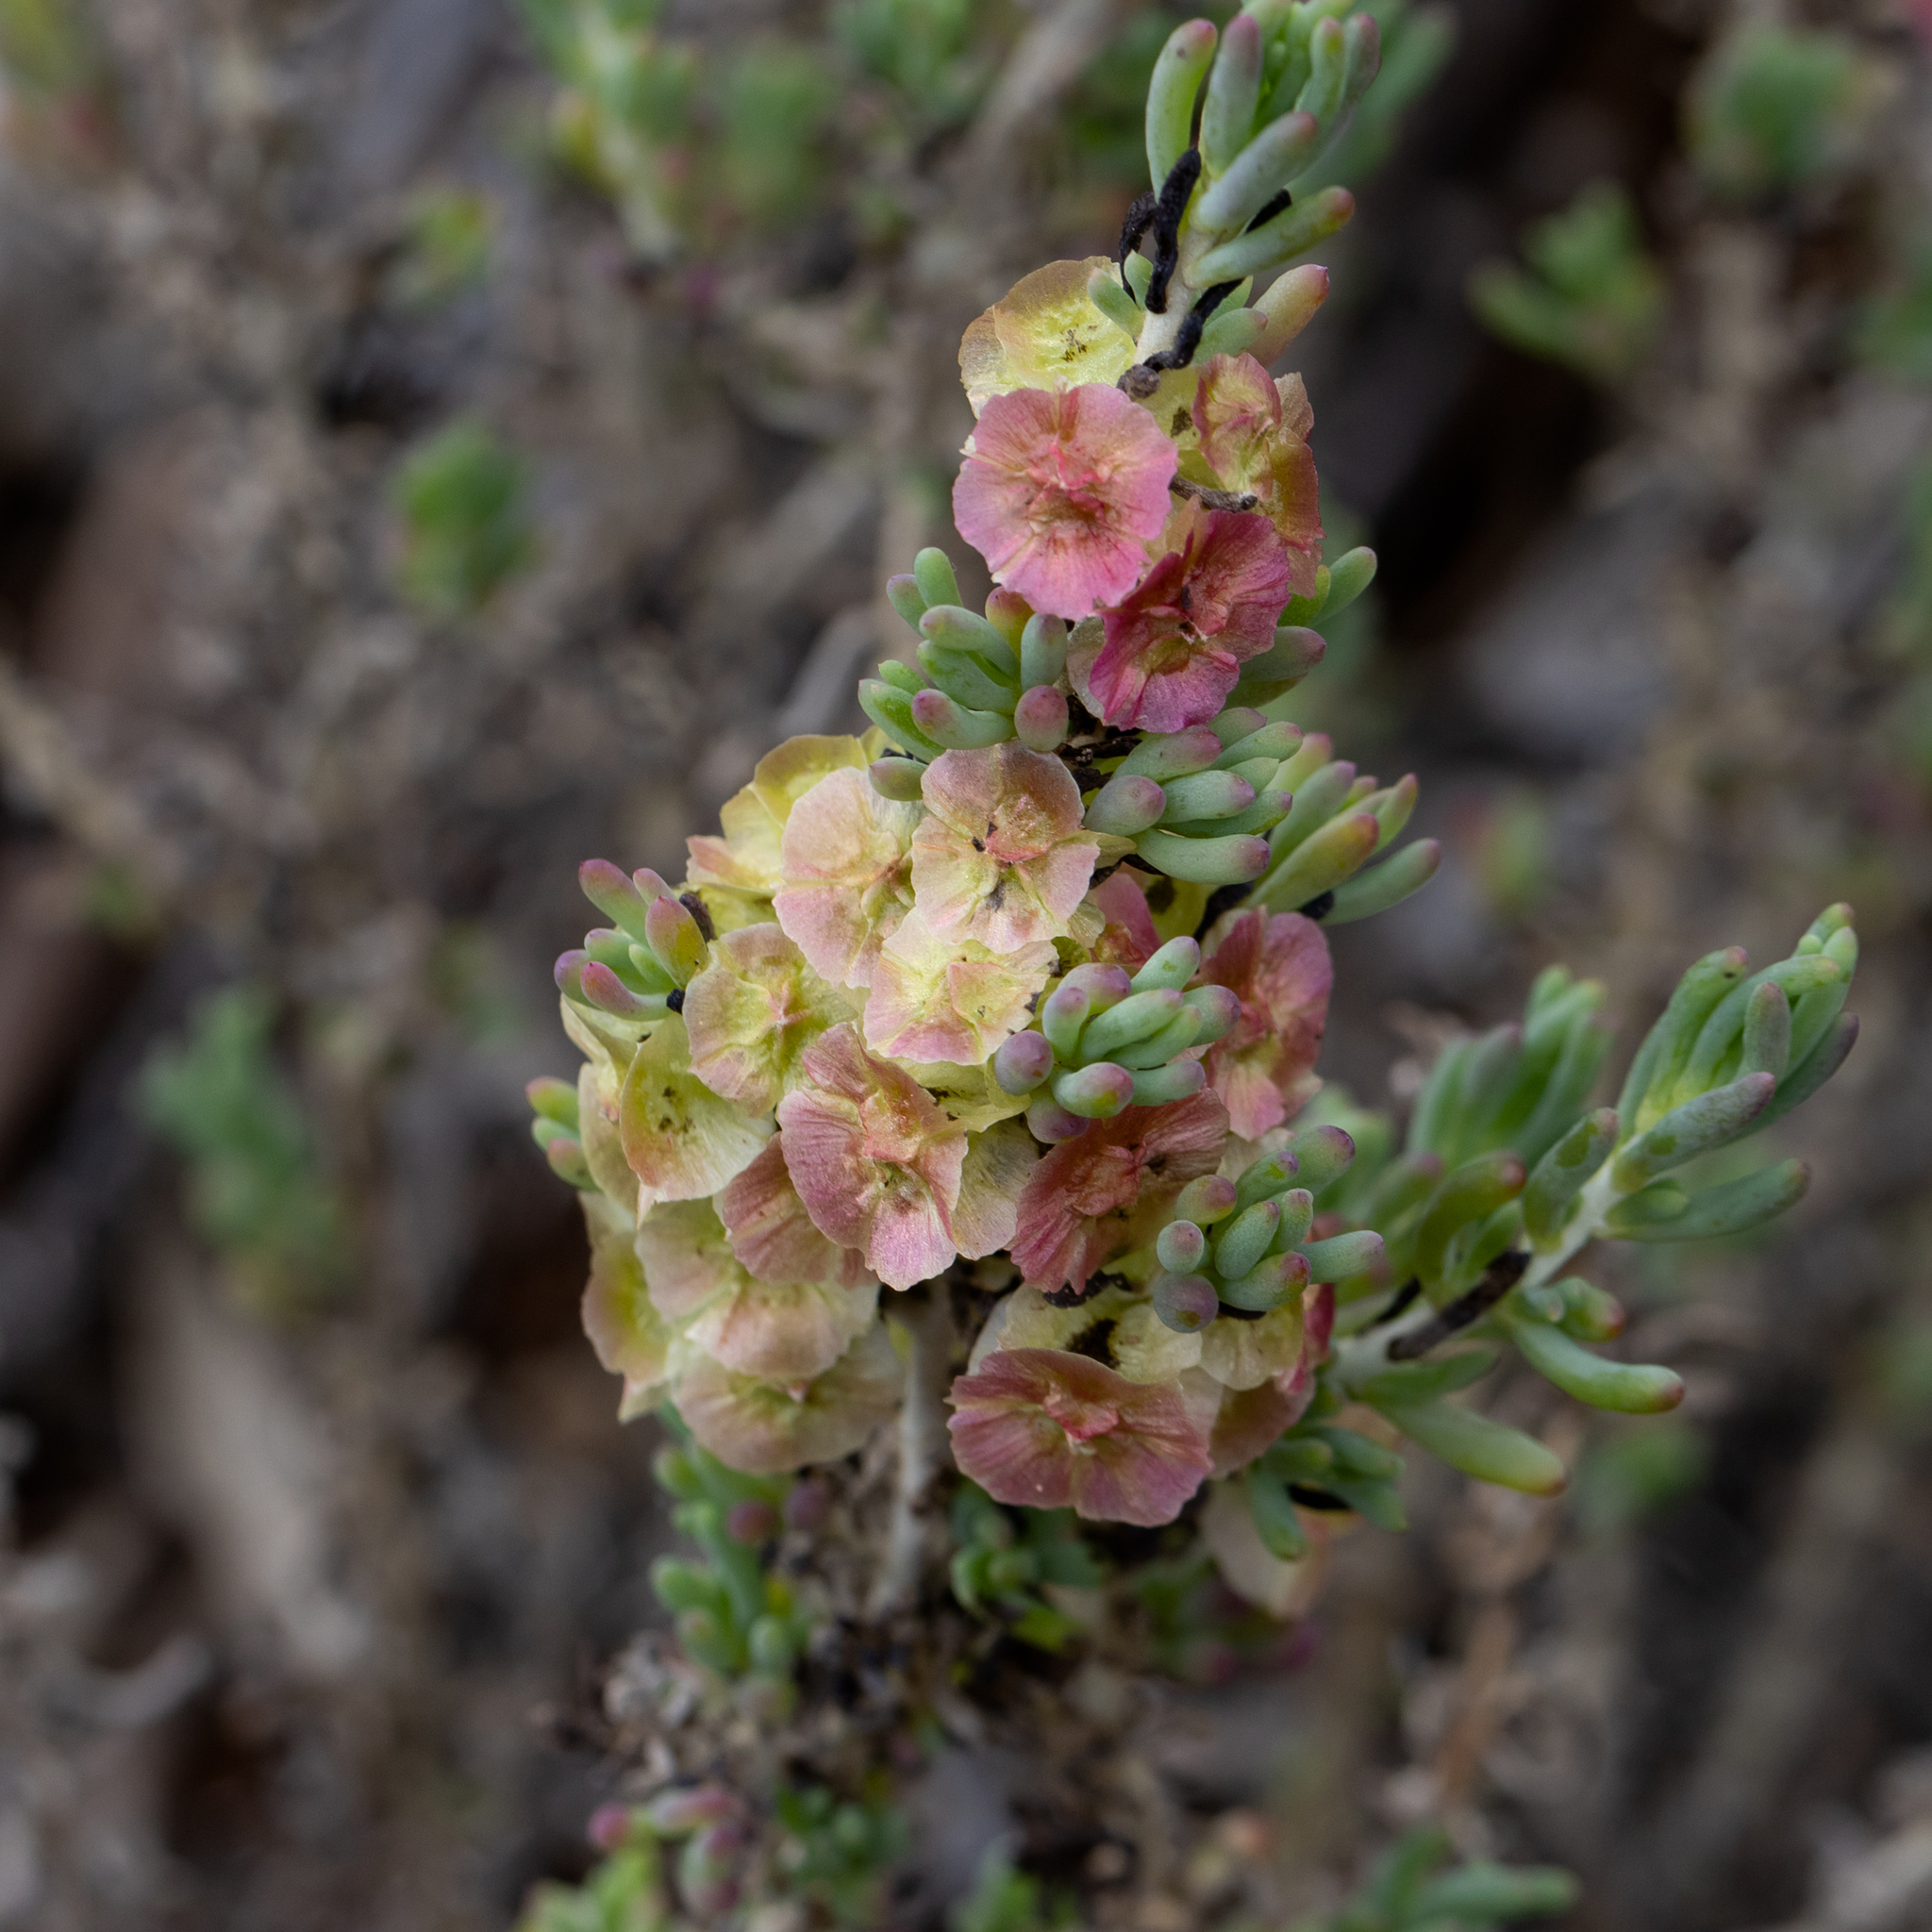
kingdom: Plantae
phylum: Tracheophyta
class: Magnoliopsida
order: Caryophyllales
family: Amaranthaceae
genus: Maireana
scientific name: Maireana pentatropis
